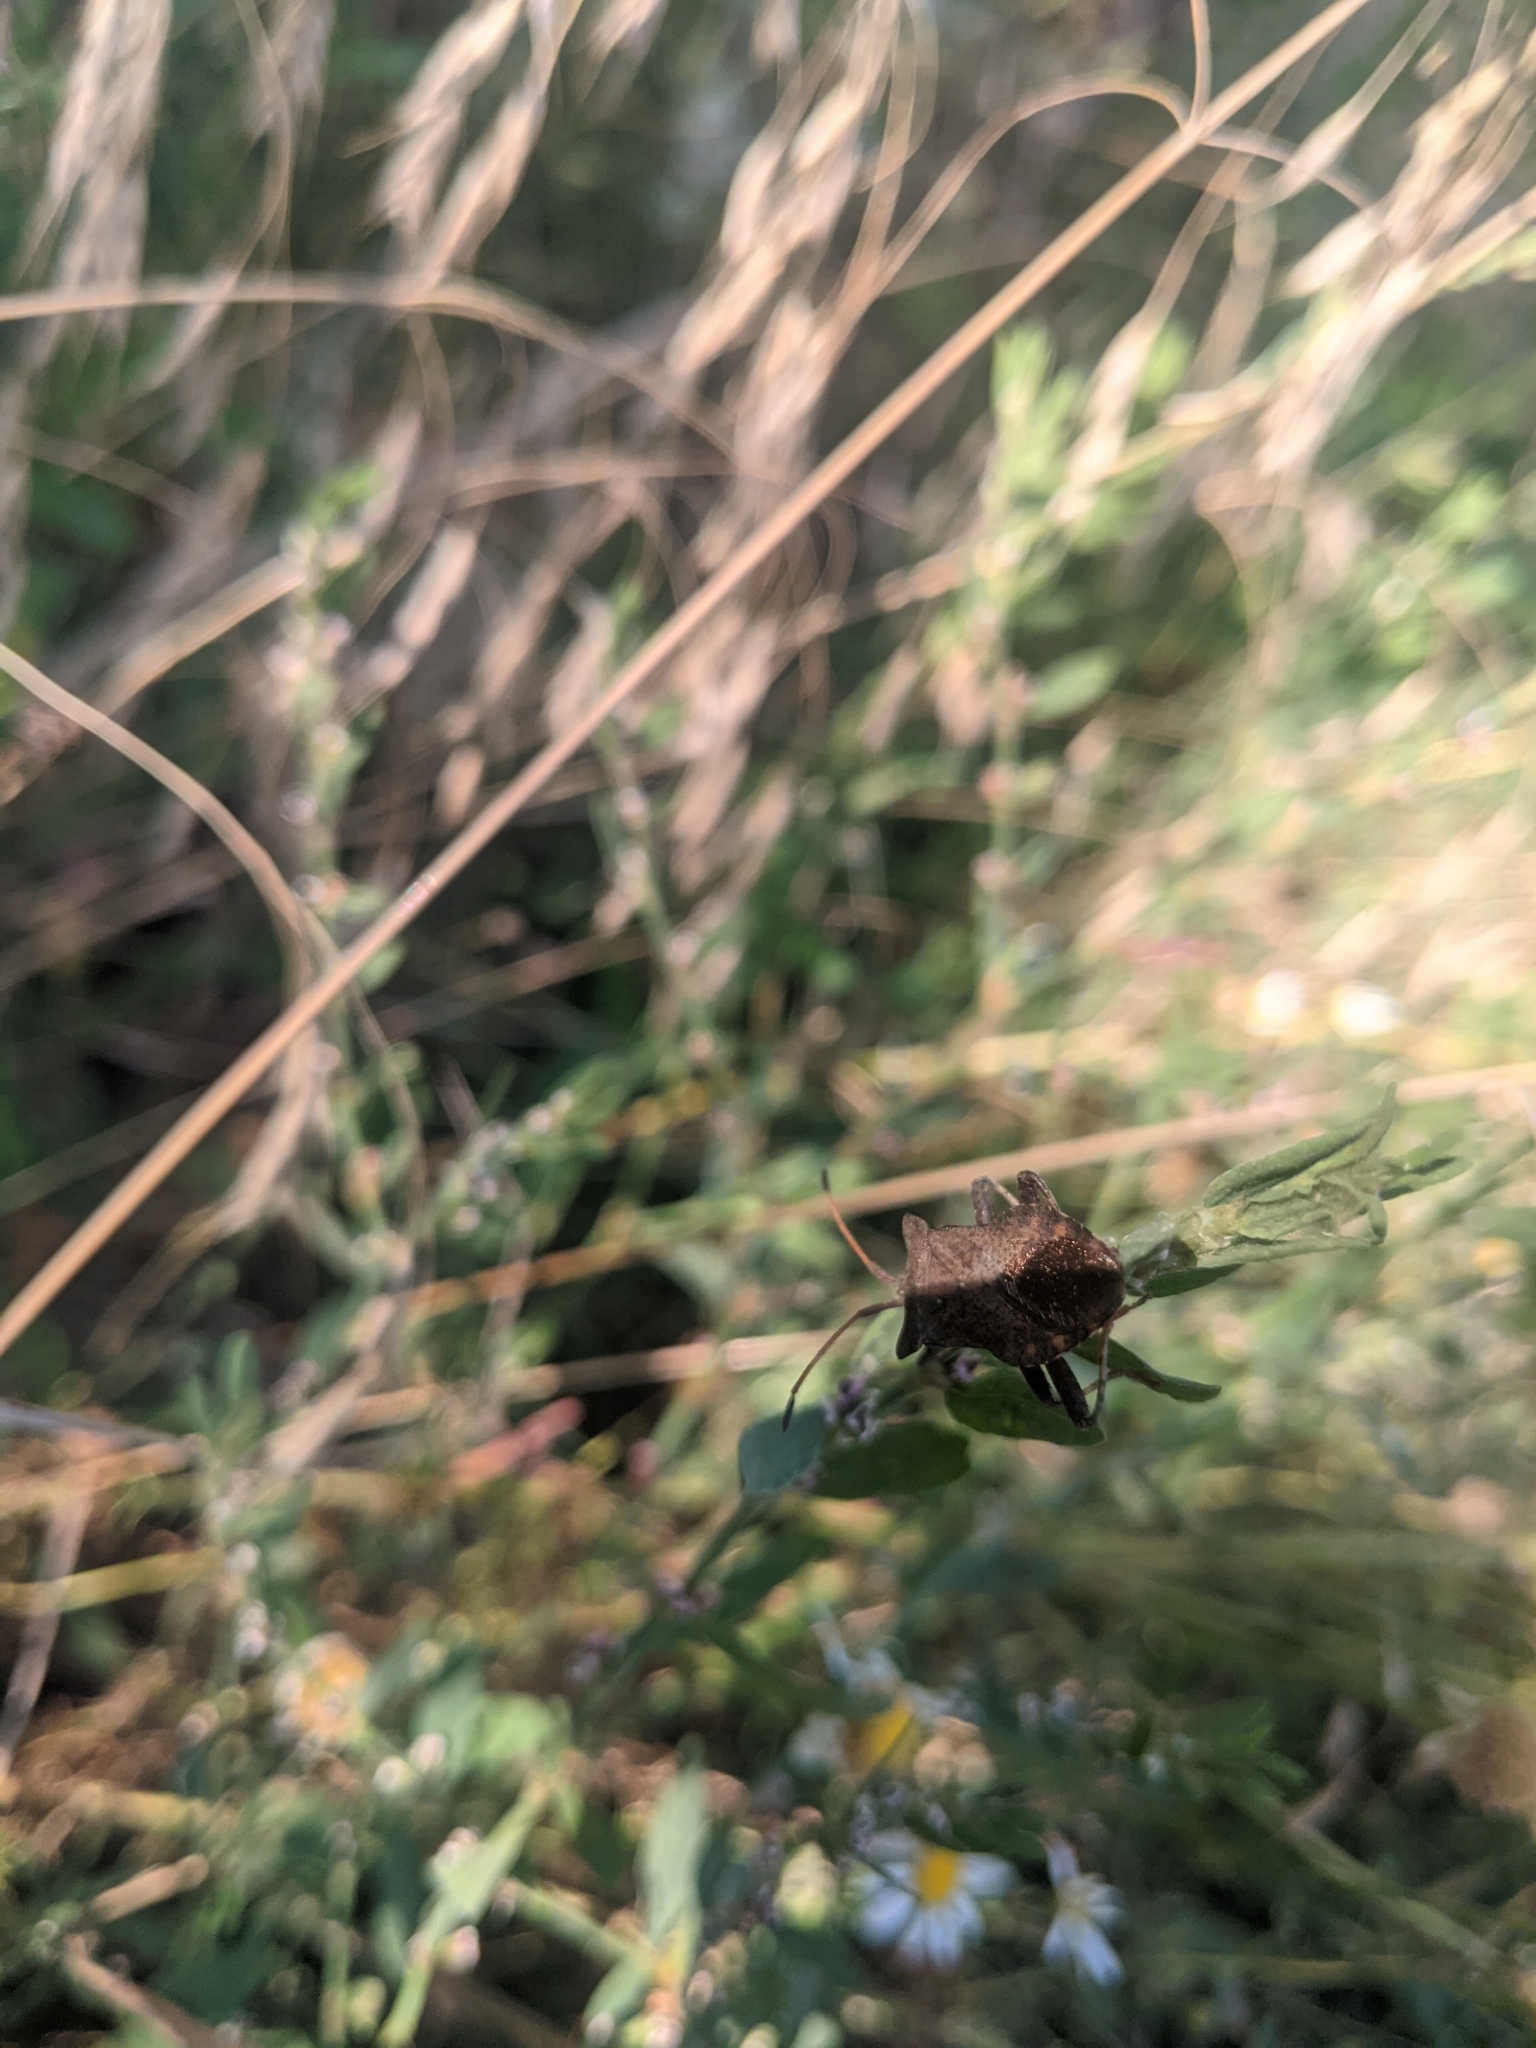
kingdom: Animalia
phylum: Arthropoda
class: Insecta
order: Hemiptera
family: Coreidae
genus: Coreus
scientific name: Coreus marginatus
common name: Dock bug
